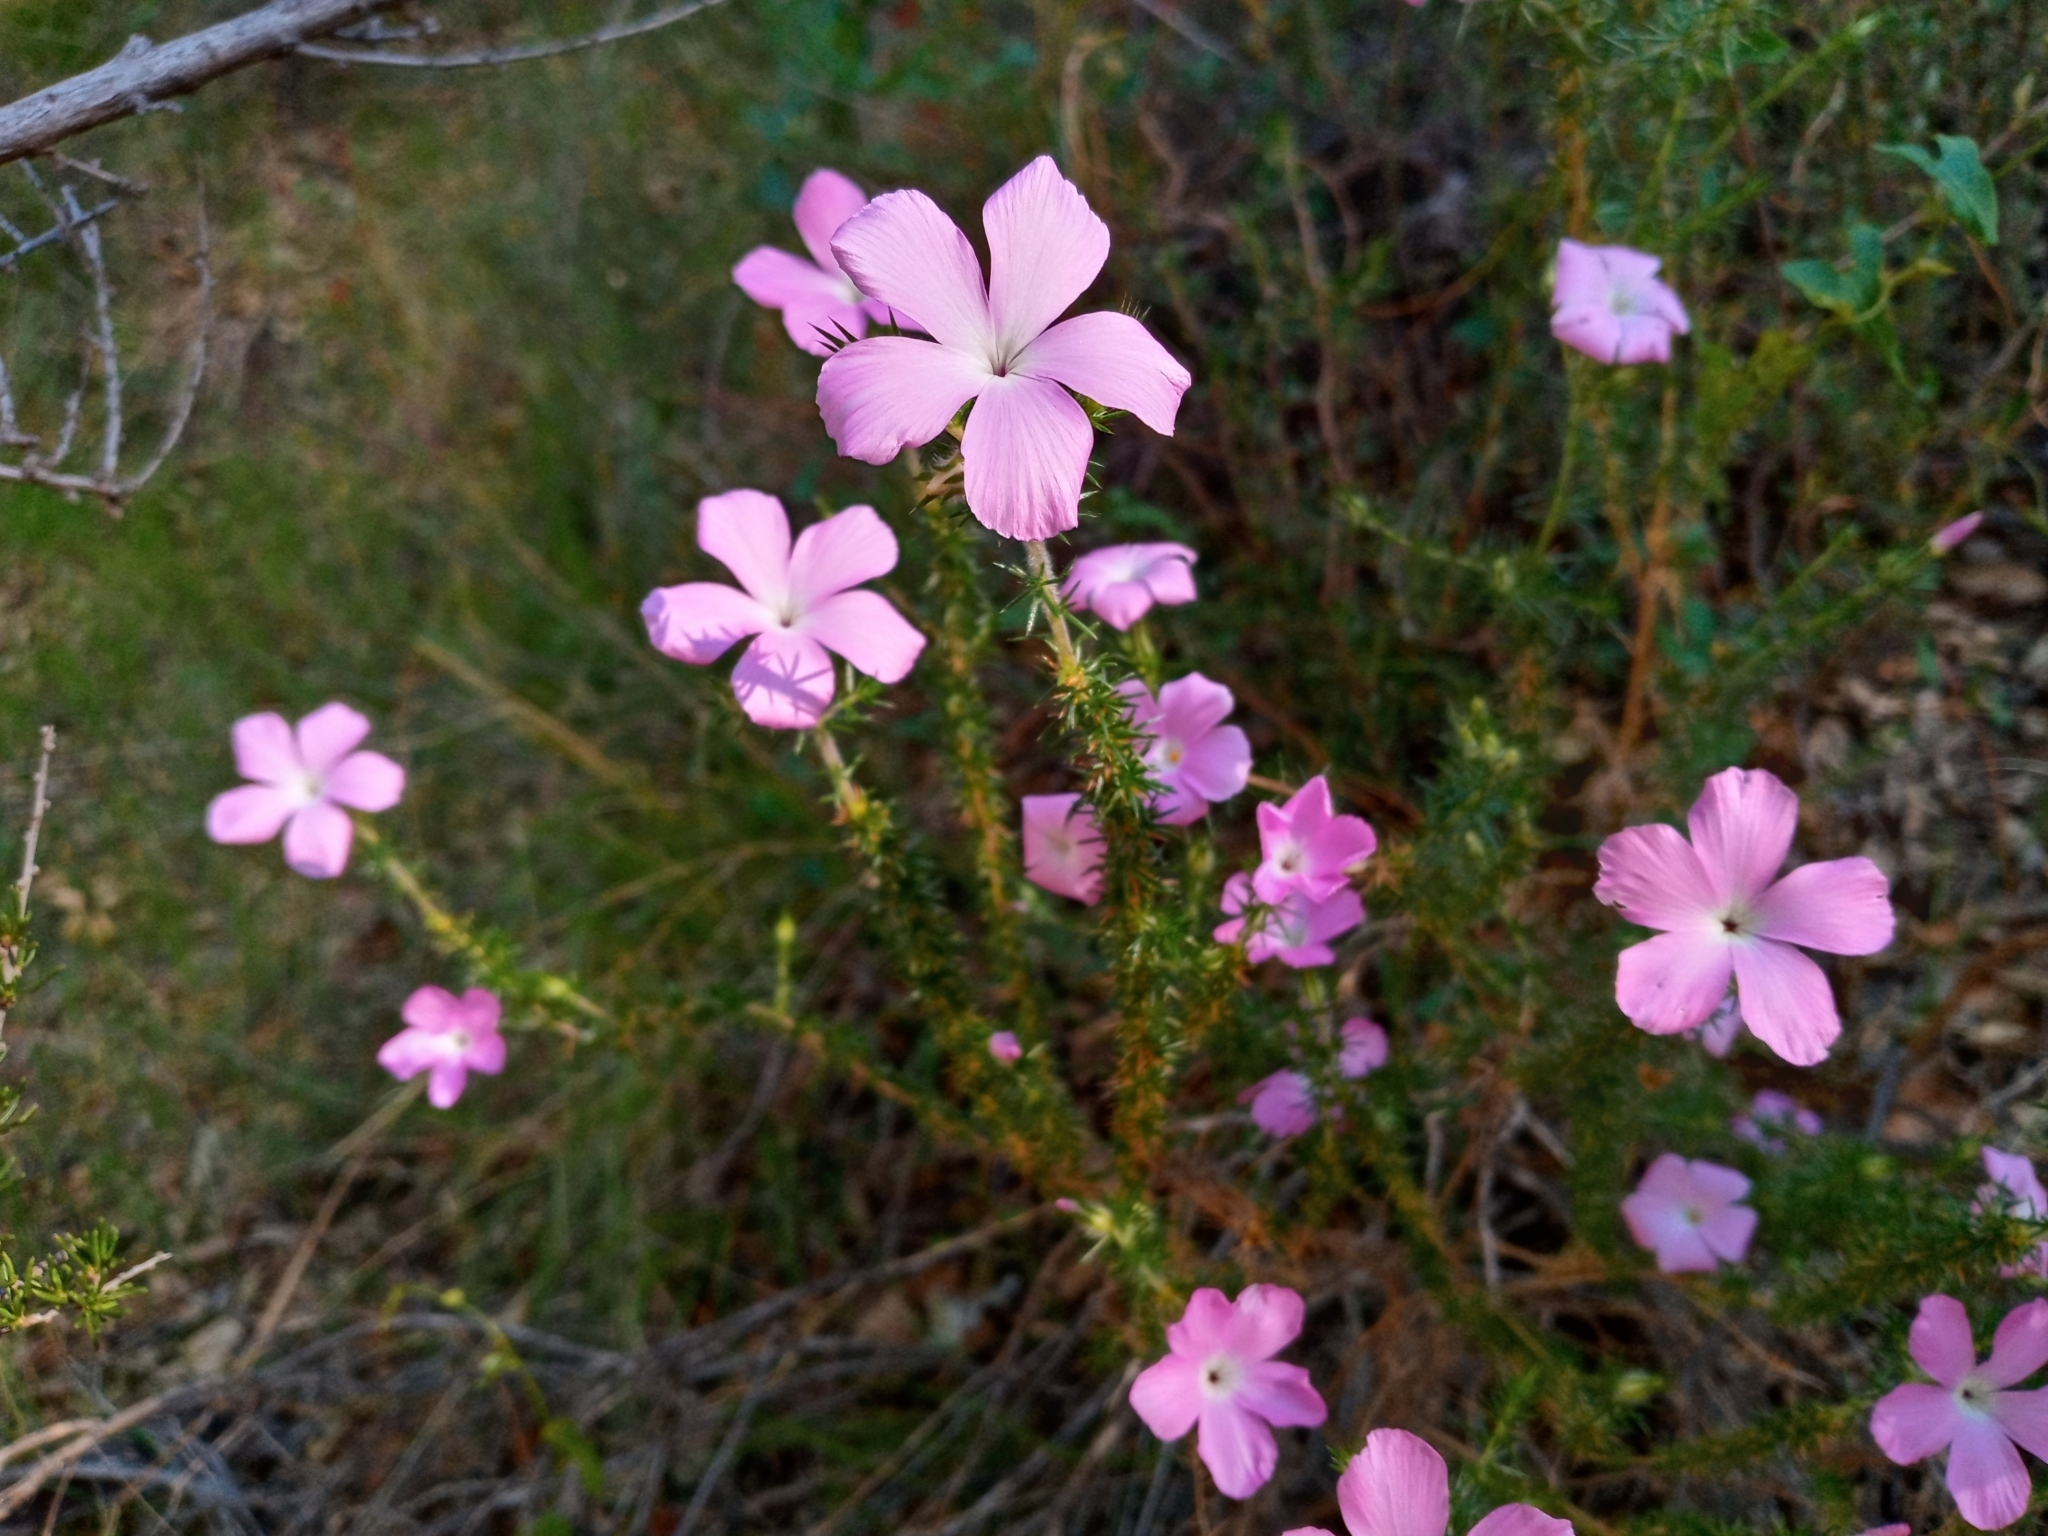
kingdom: Plantae
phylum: Tracheophyta
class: Magnoliopsida
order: Ericales
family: Polemoniaceae
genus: Linanthus
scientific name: Linanthus californicus
